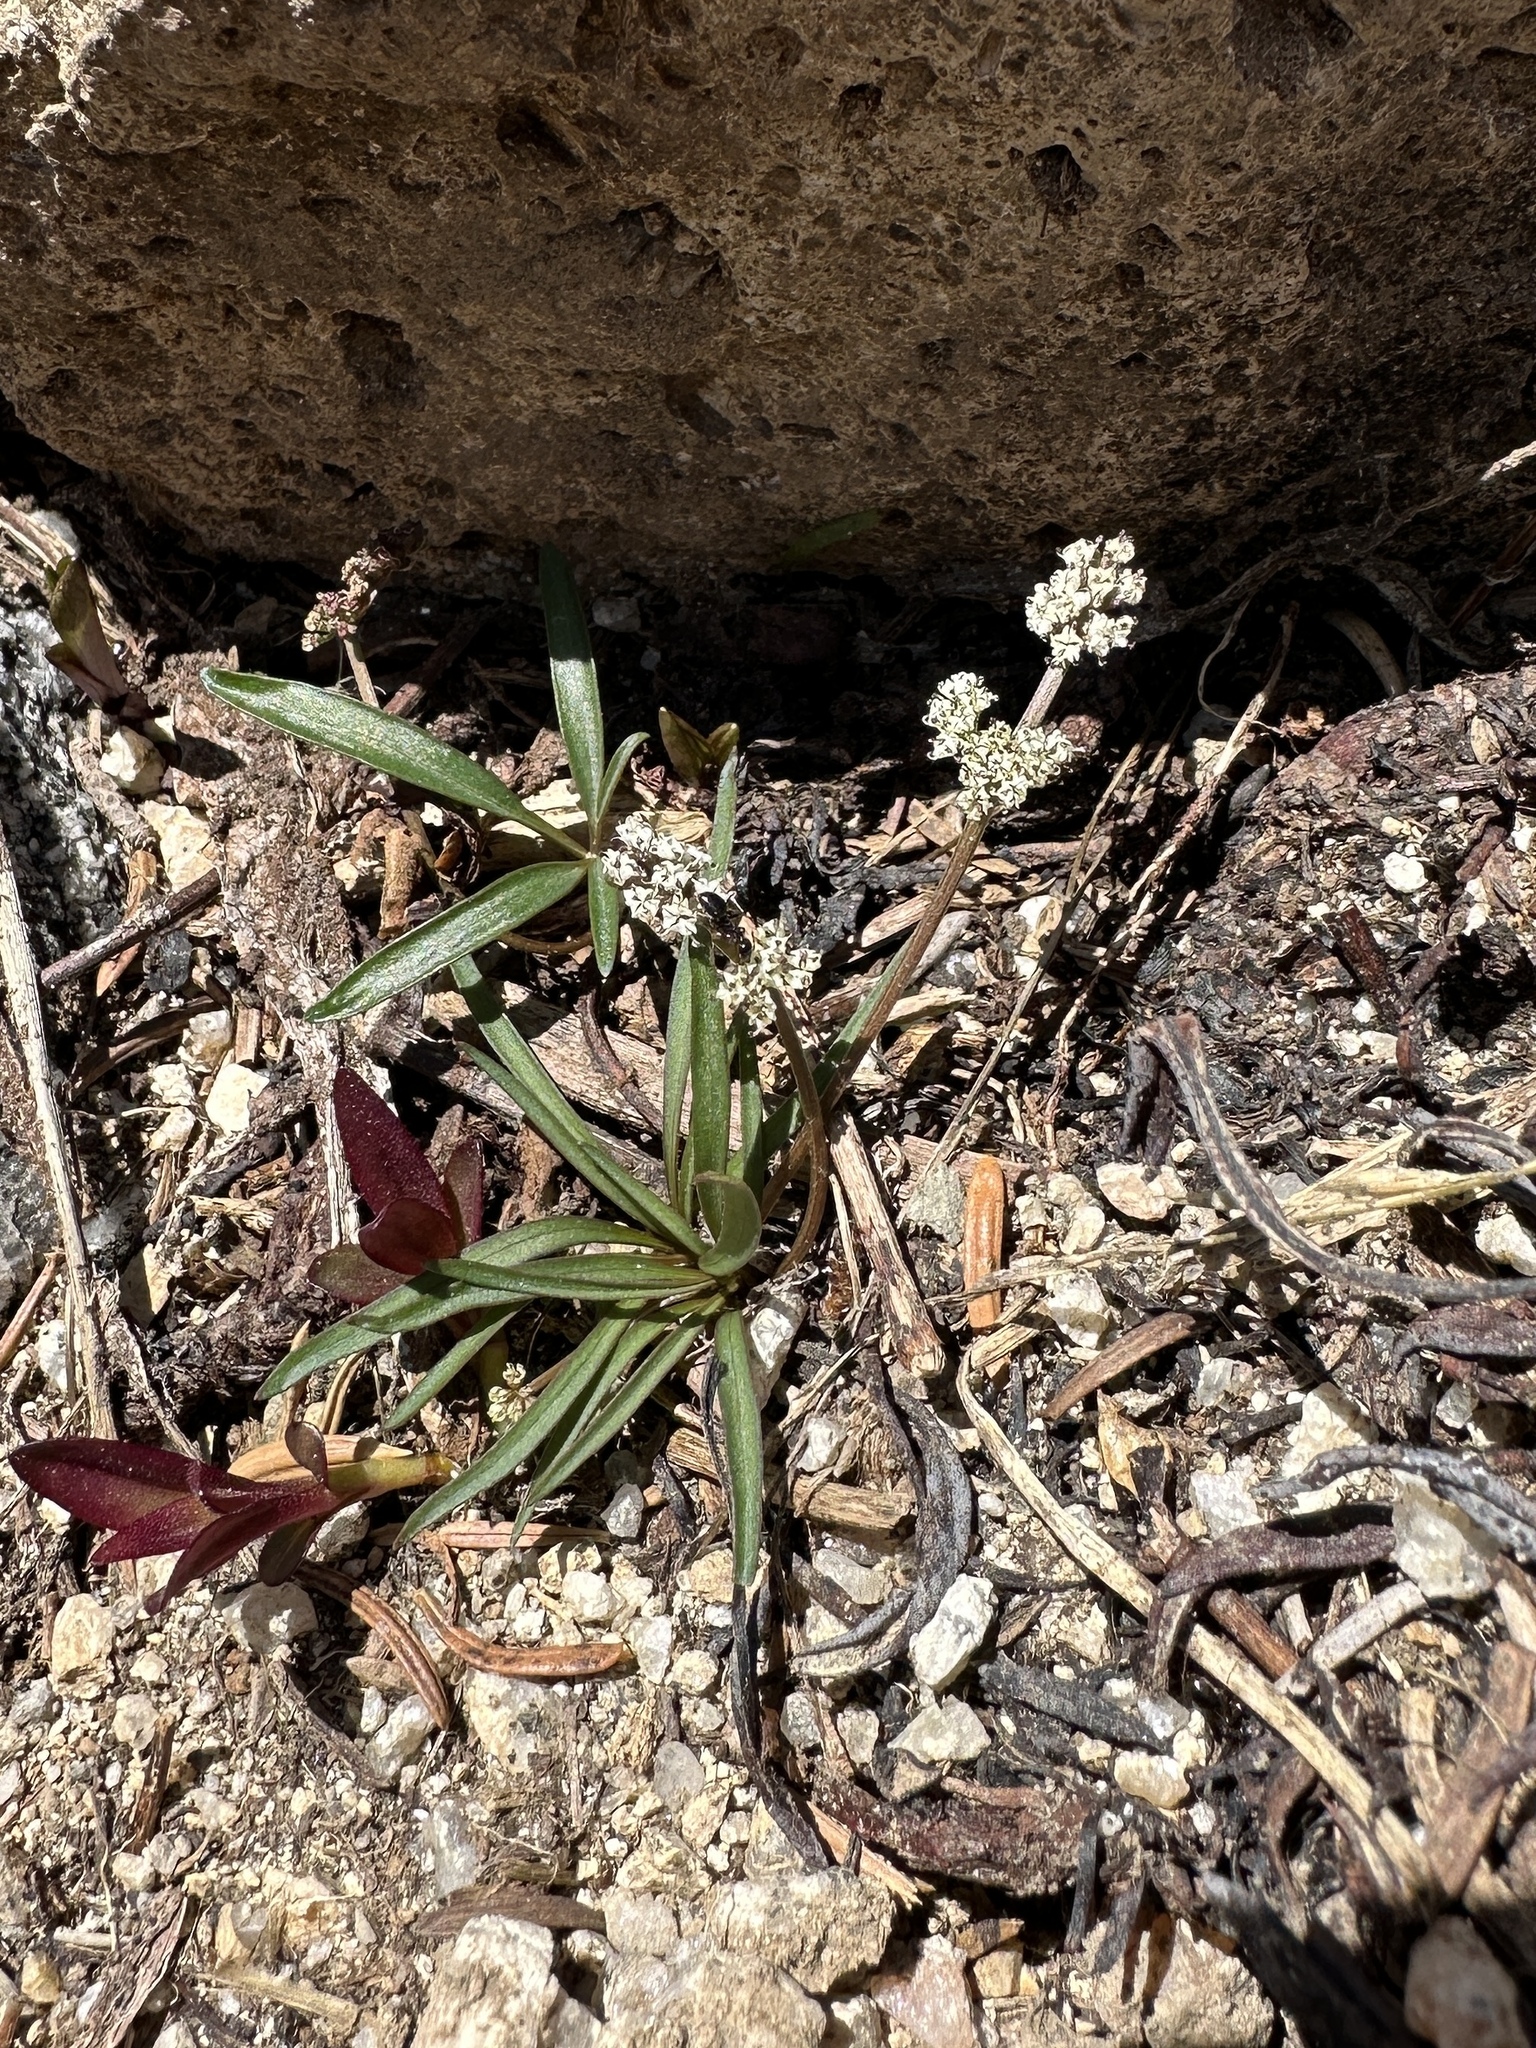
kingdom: Plantae
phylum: Tracheophyta
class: Magnoliopsida
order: Apiales
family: Apiaceae
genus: Lomatium
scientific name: Lomatium linearifolium
